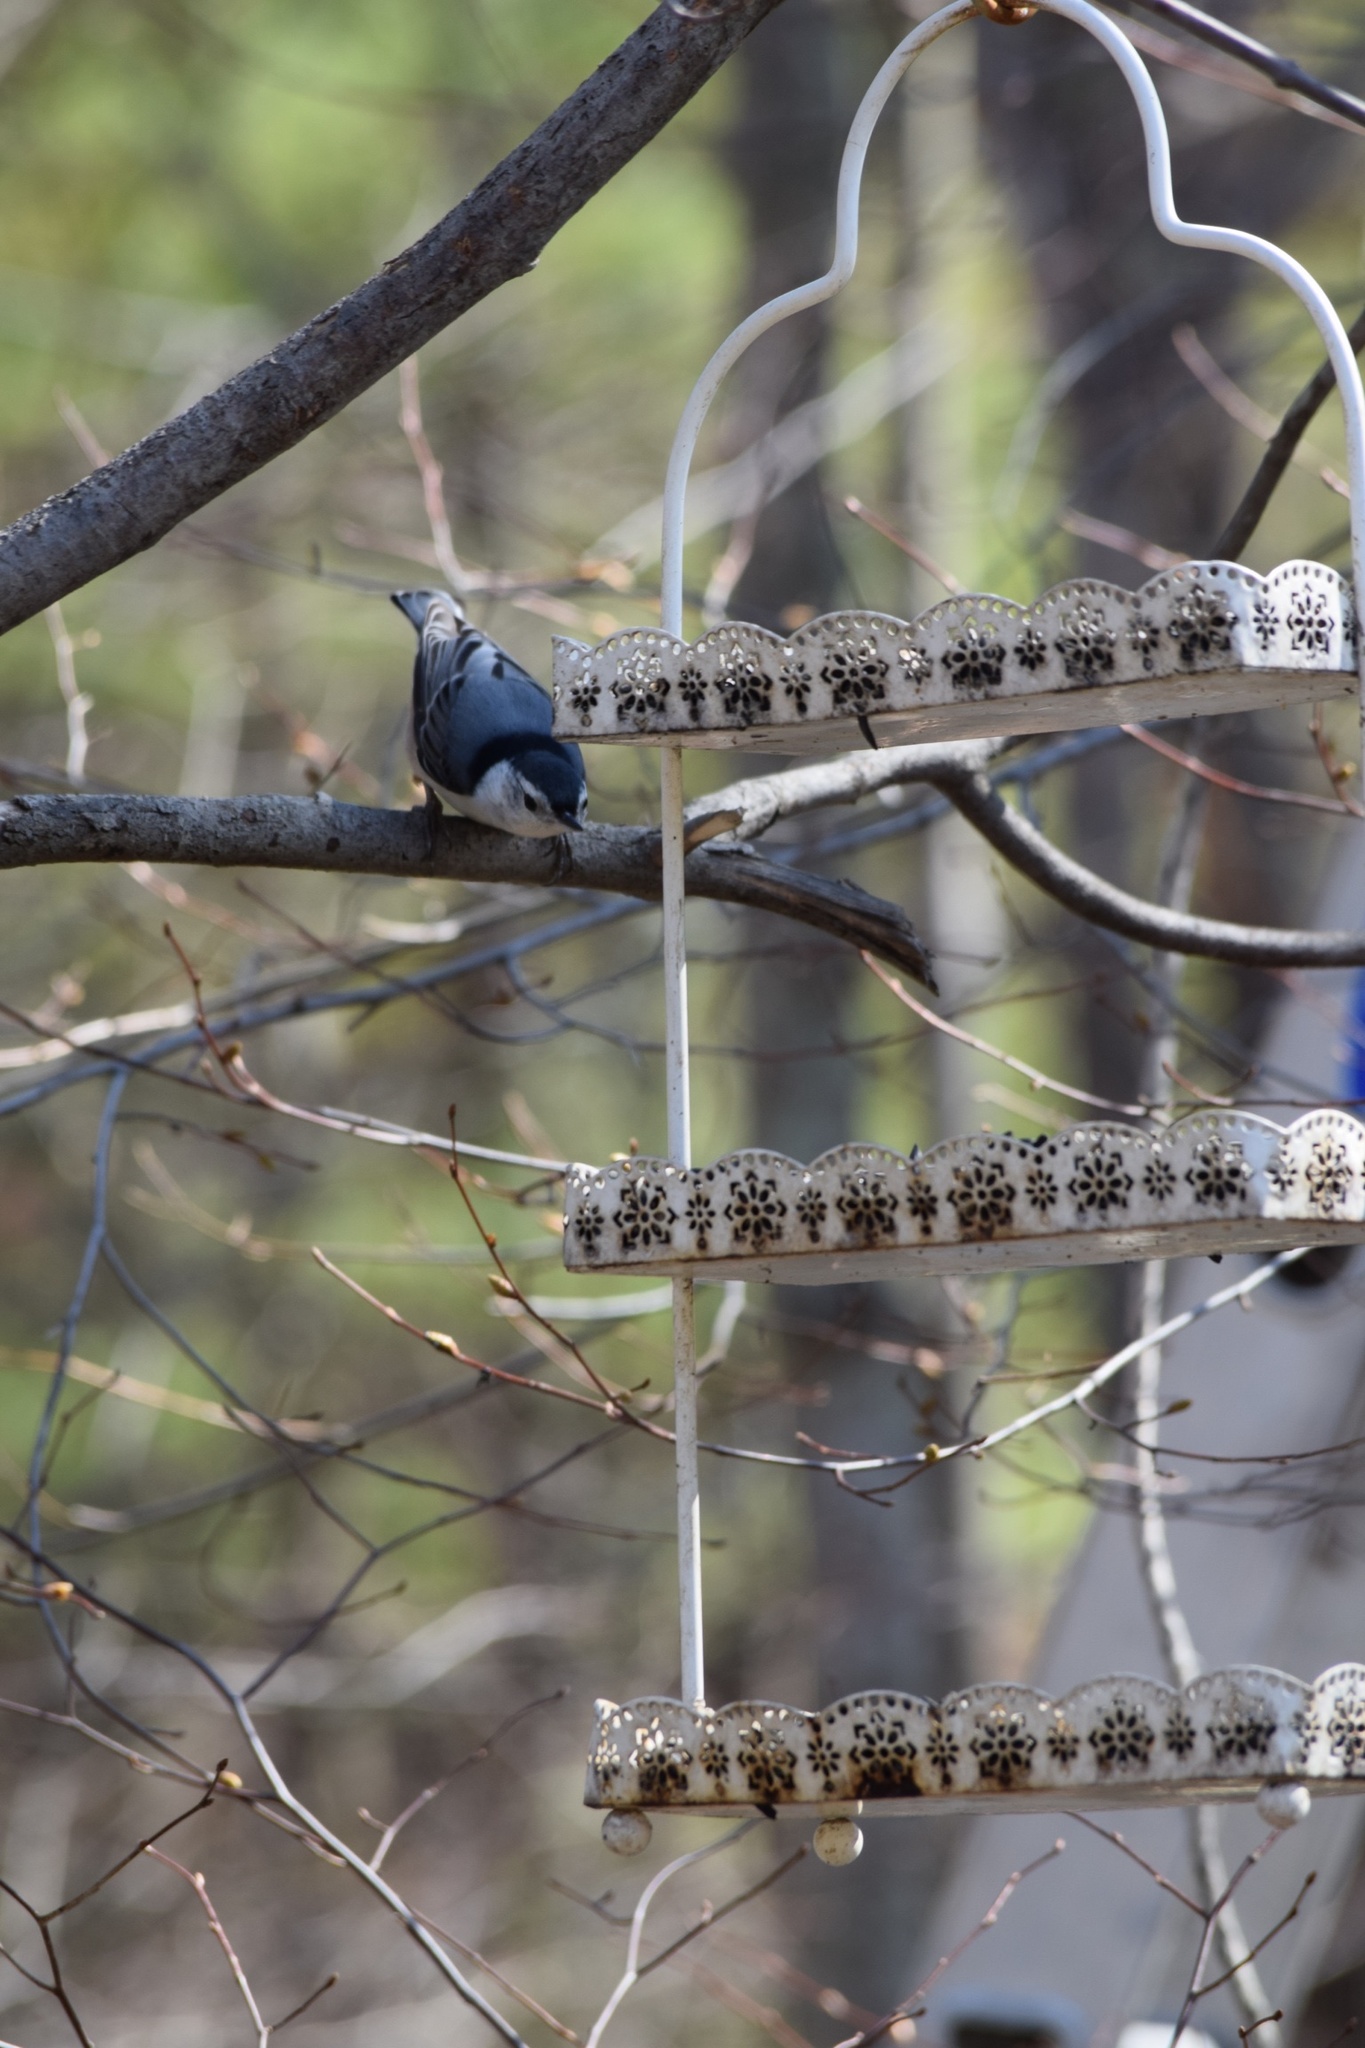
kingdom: Animalia
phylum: Chordata
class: Aves
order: Passeriformes
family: Sittidae
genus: Sitta
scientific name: Sitta carolinensis
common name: White-breasted nuthatch
